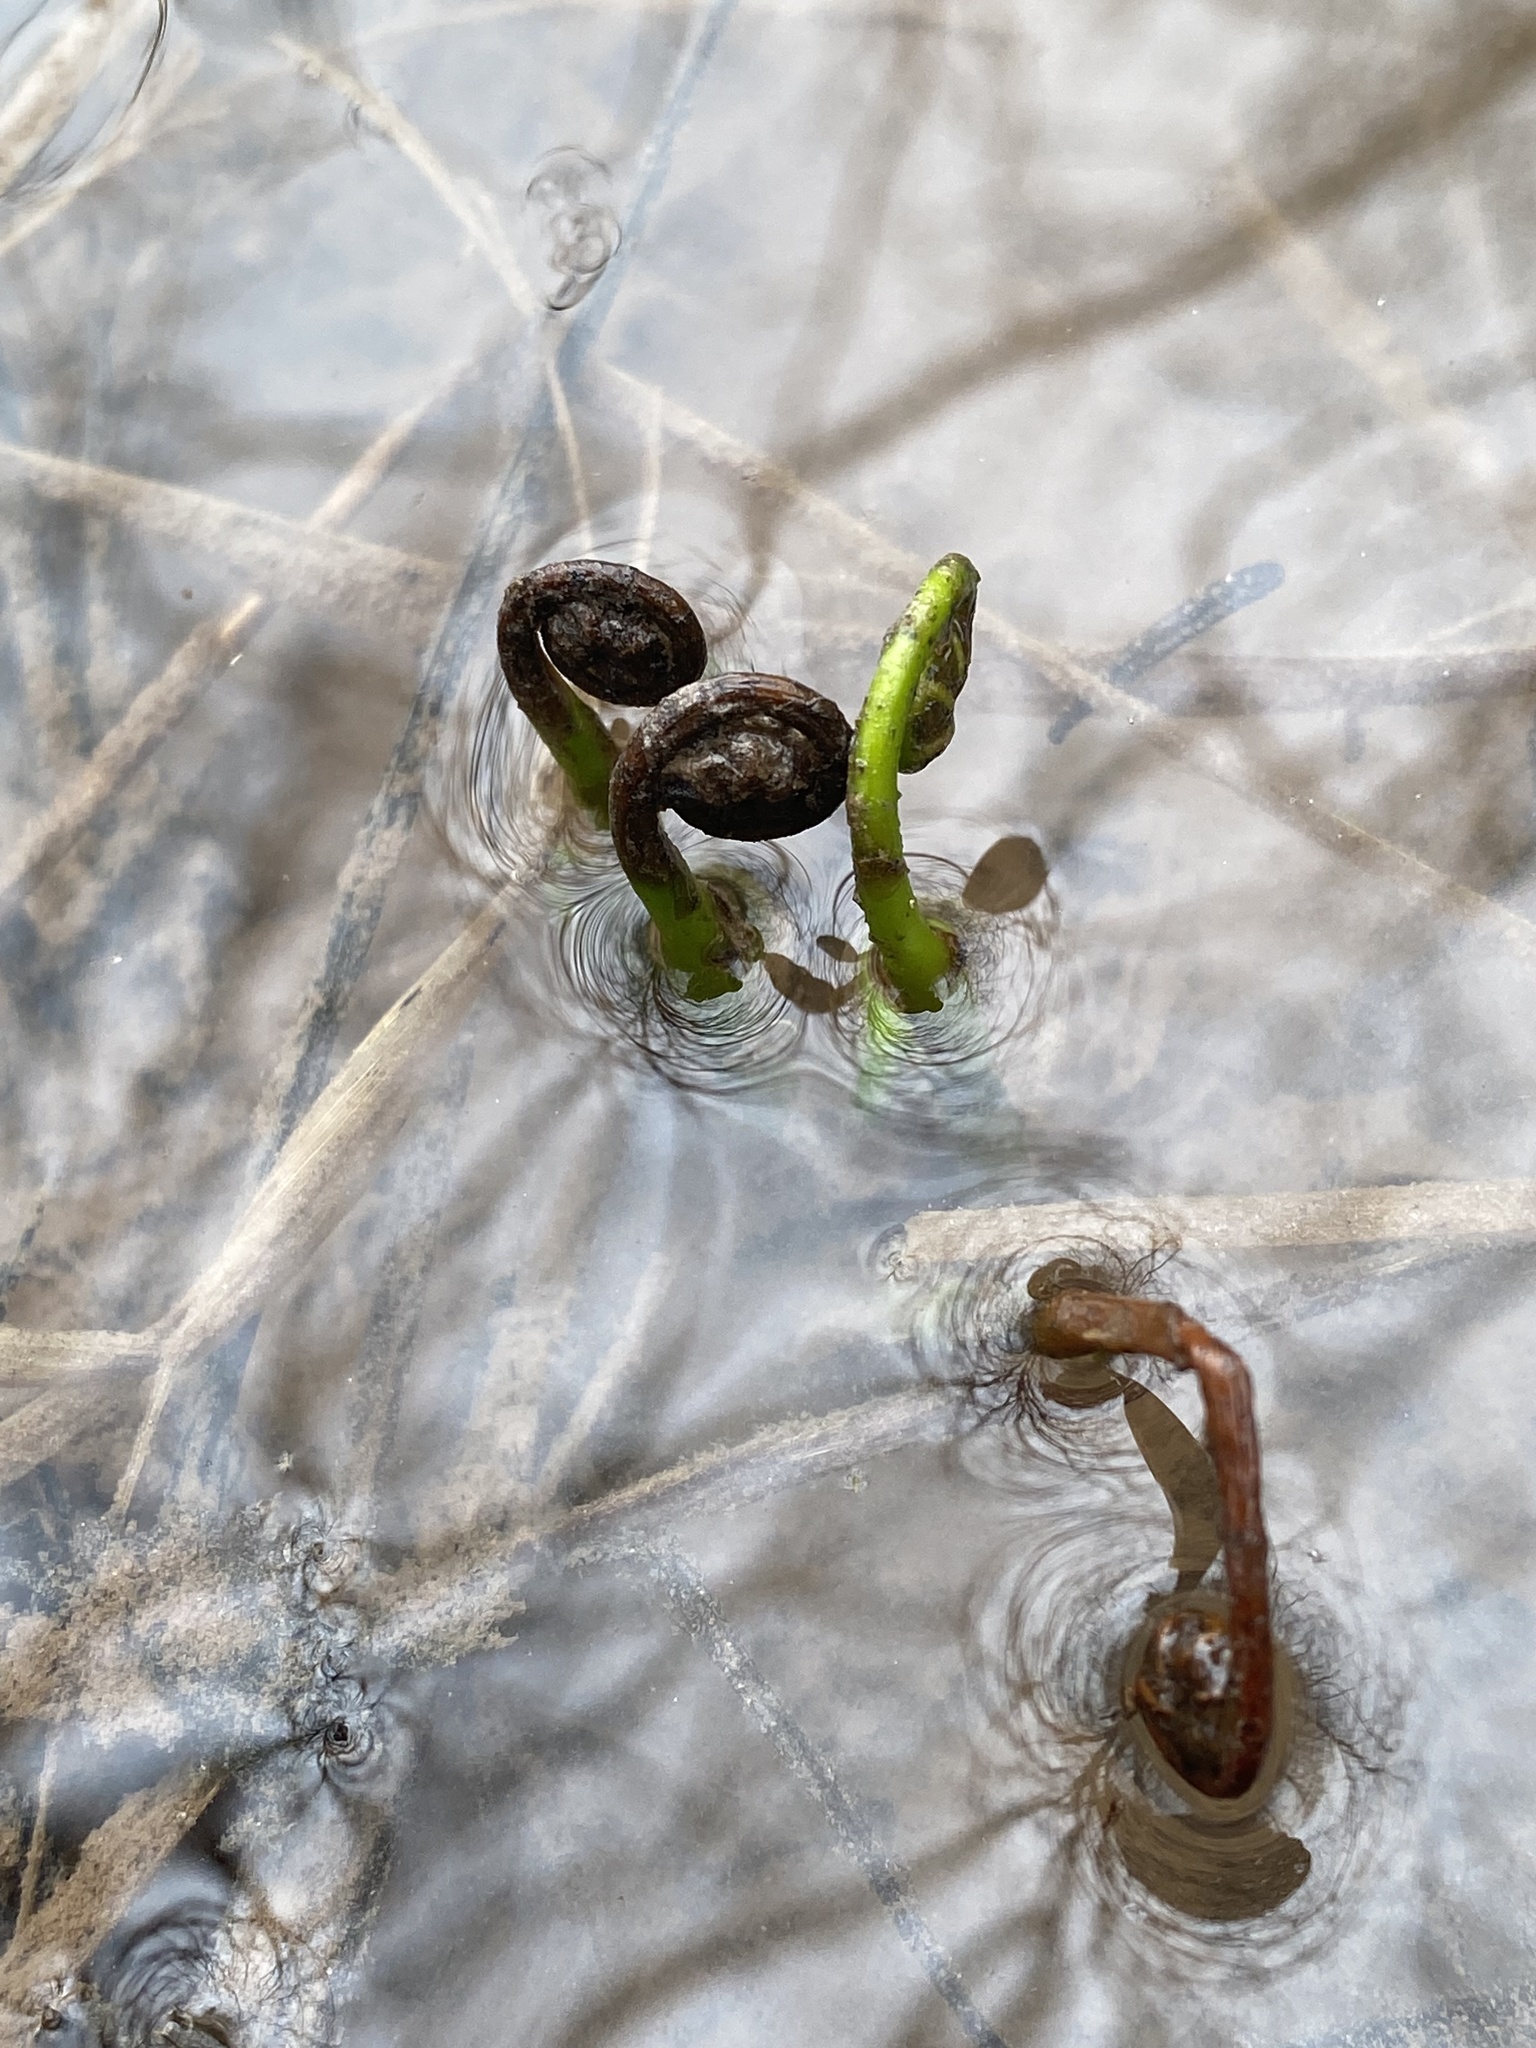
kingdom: Plantae
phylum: Tracheophyta
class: Polypodiopsida
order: Polypodiales
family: Onocleaceae
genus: Onoclea
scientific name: Onoclea sensibilis
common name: Sensitive fern
